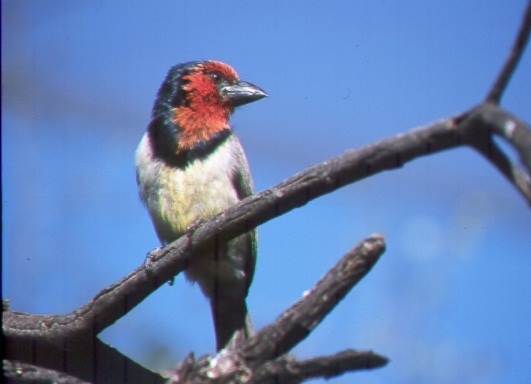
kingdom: Animalia
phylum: Chordata
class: Aves
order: Piciformes
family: Lybiidae
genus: Lybius
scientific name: Lybius torquatus
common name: Black-collared barbet
